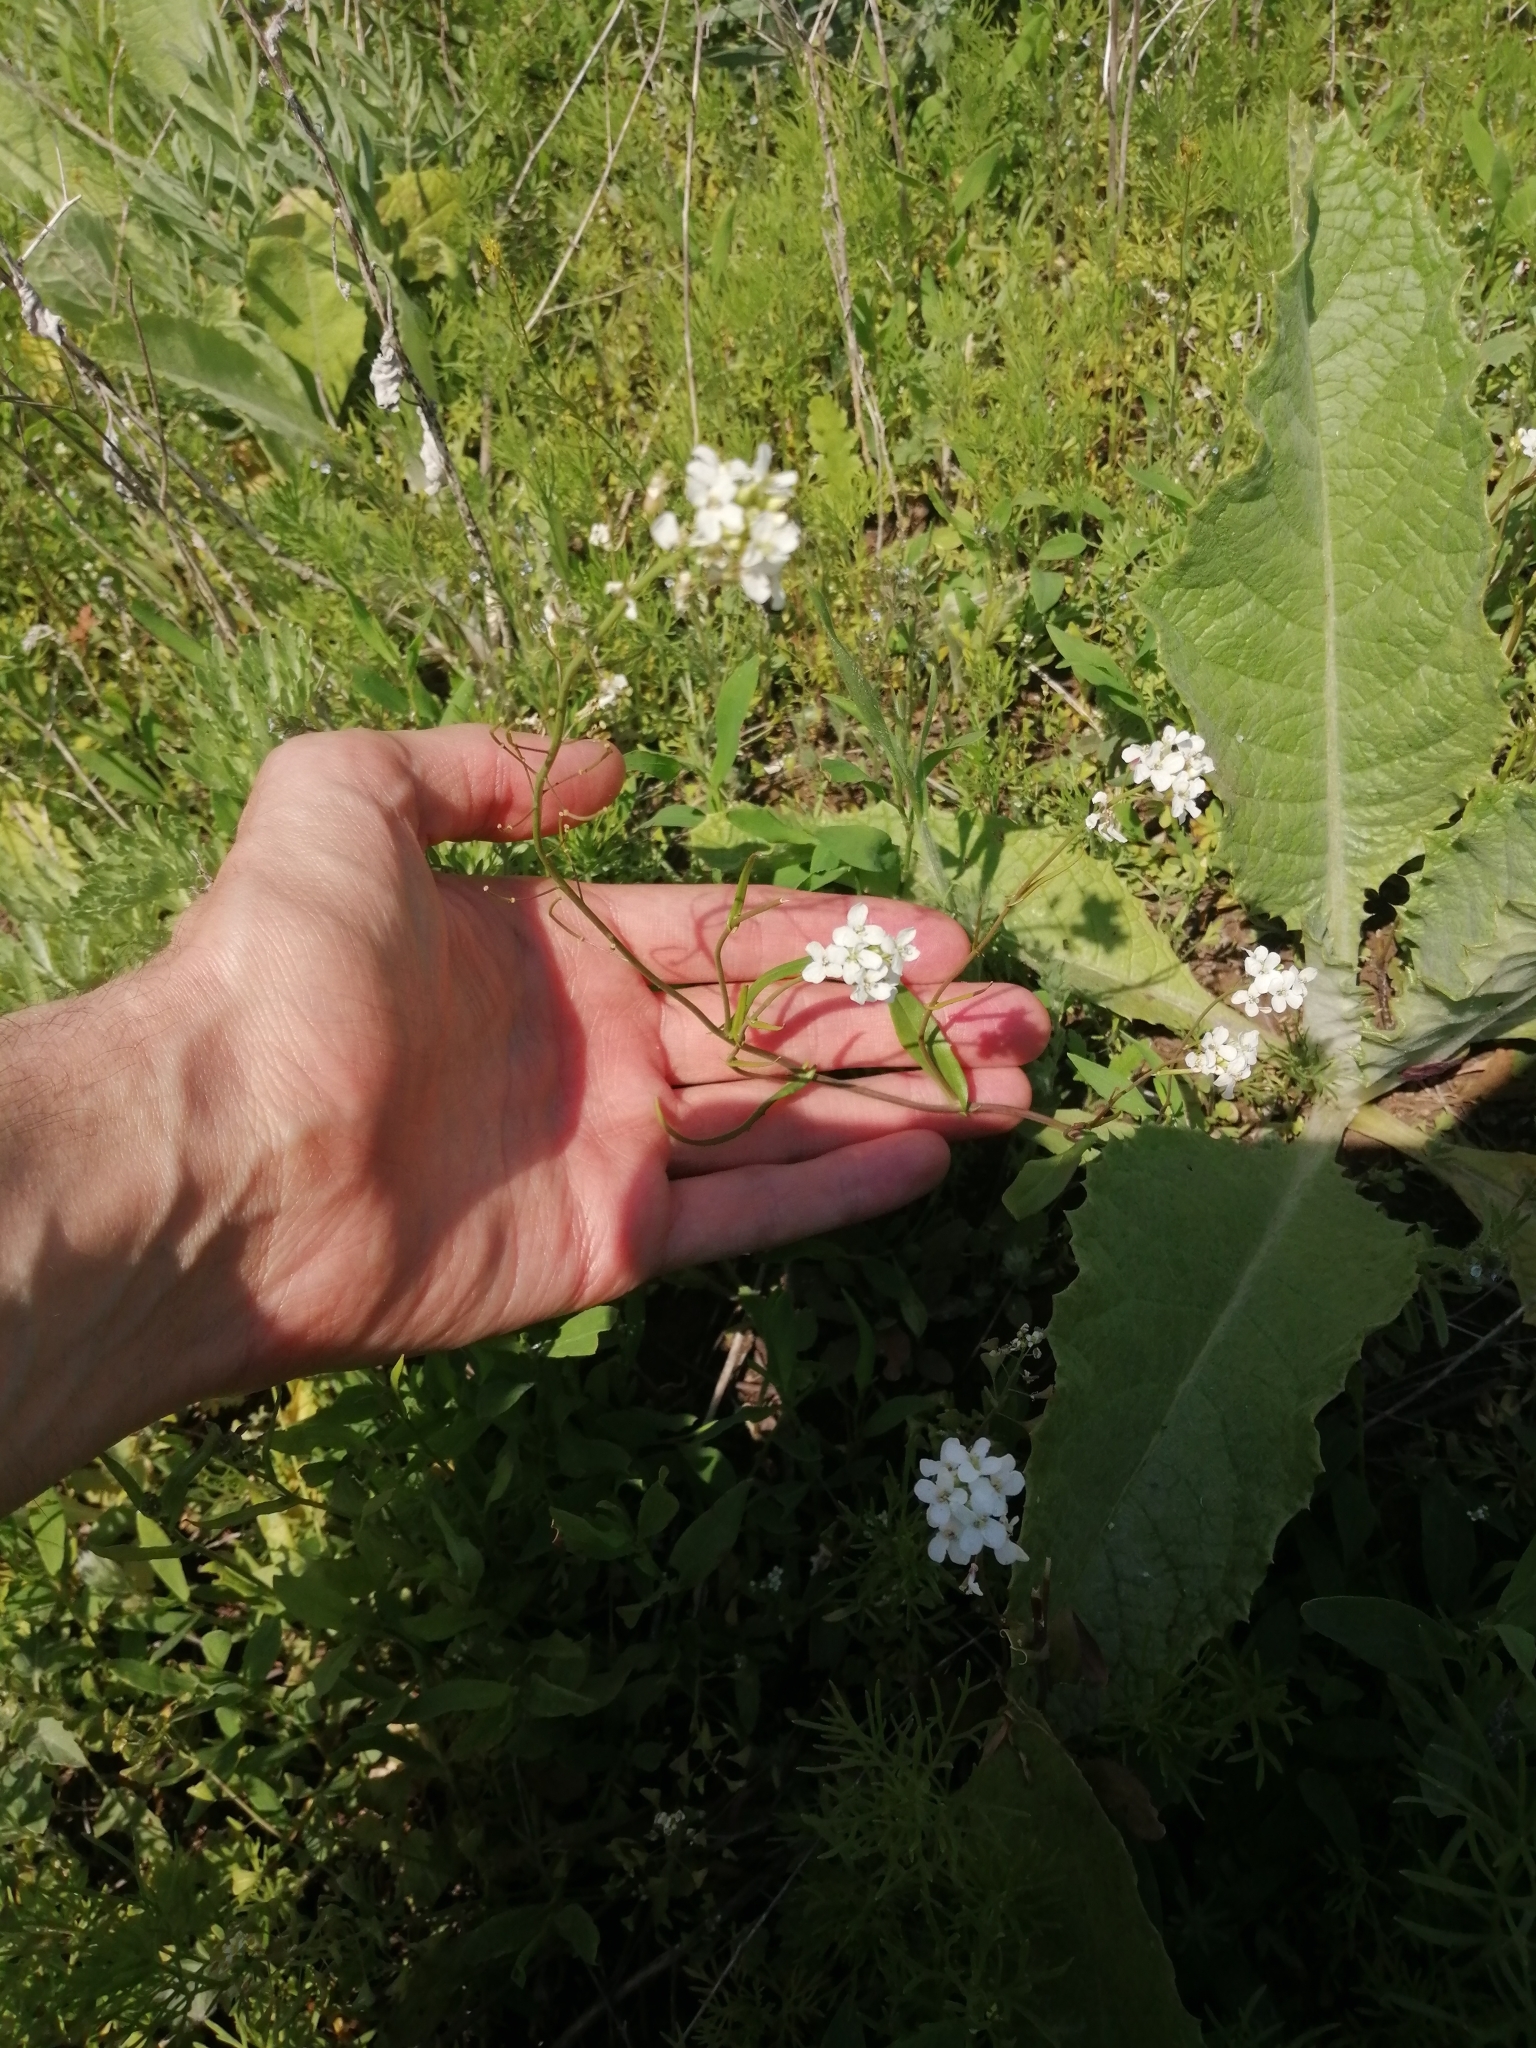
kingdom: Plantae
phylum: Tracheophyta
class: Magnoliopsida
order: Brassicales
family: Brassicaceae
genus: Pseudoarabidopsis
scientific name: Pseudoarabidopsis toxophylla
